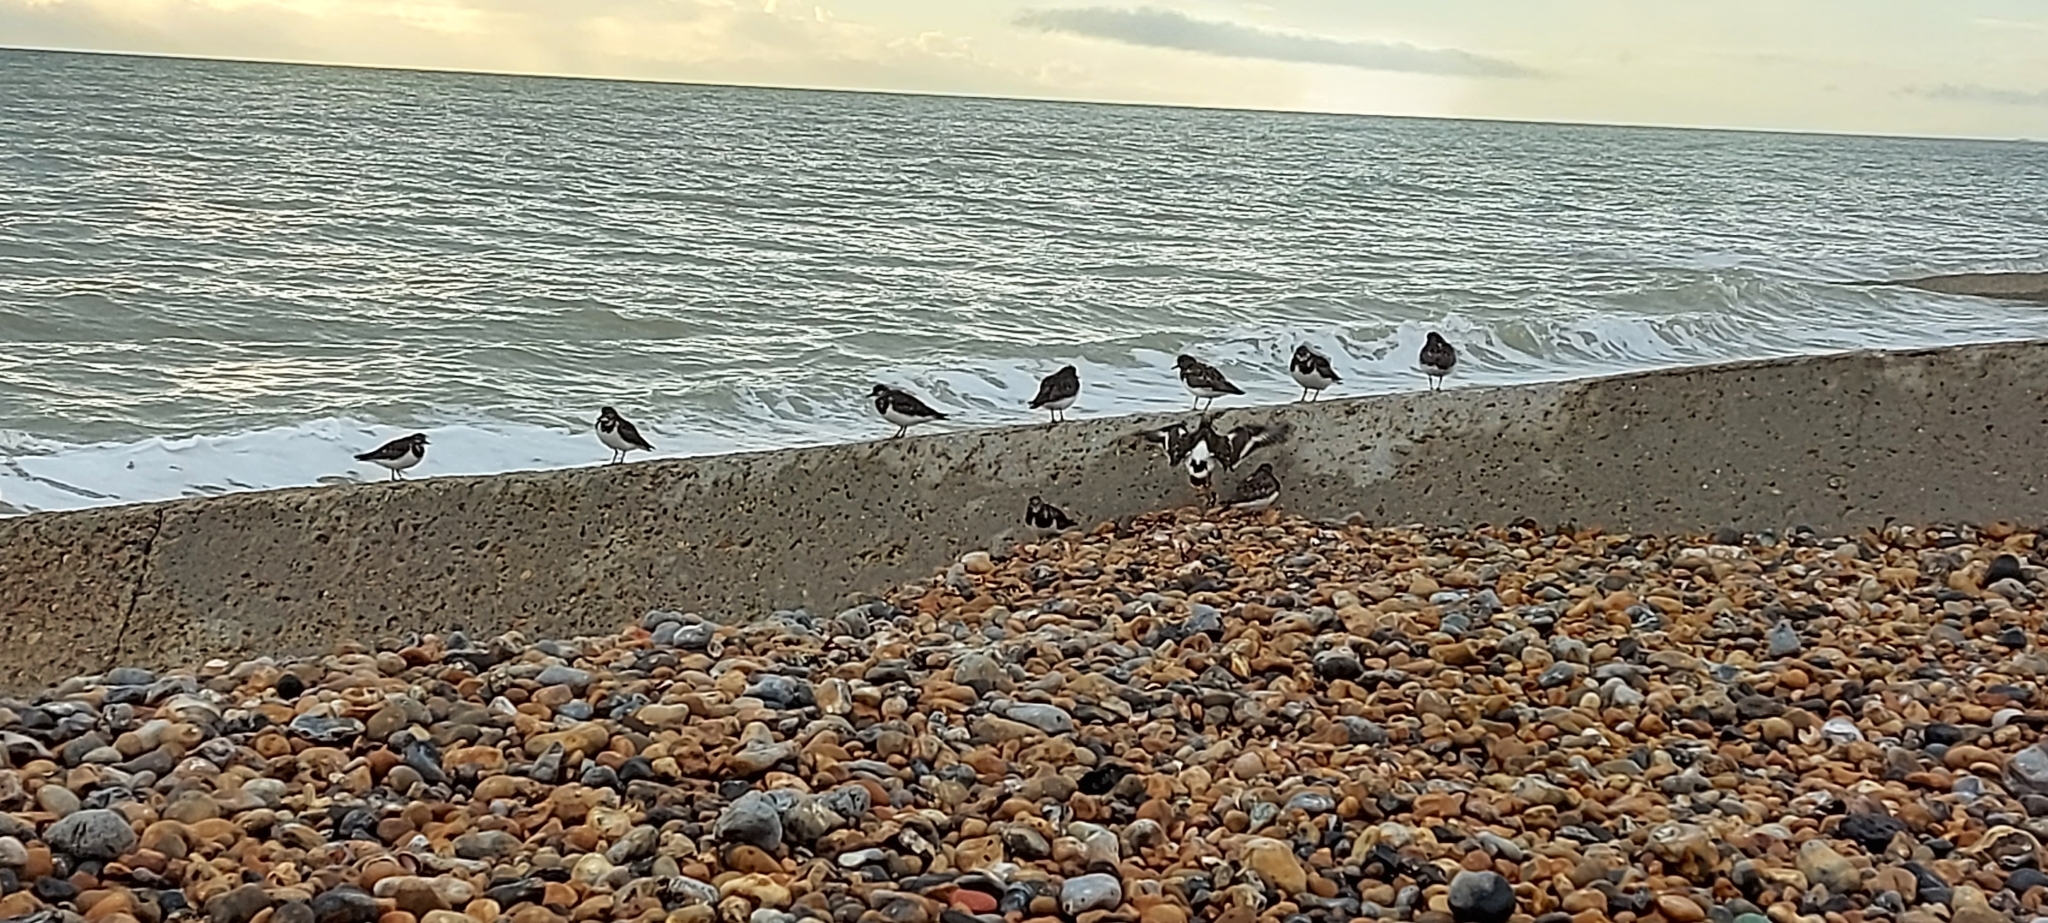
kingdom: Animalia
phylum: Chordata
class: Aves
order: Charadriiformes
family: Scolopacidae
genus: Arenaria
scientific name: Arenaria interpres
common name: Ruddy turnstone
